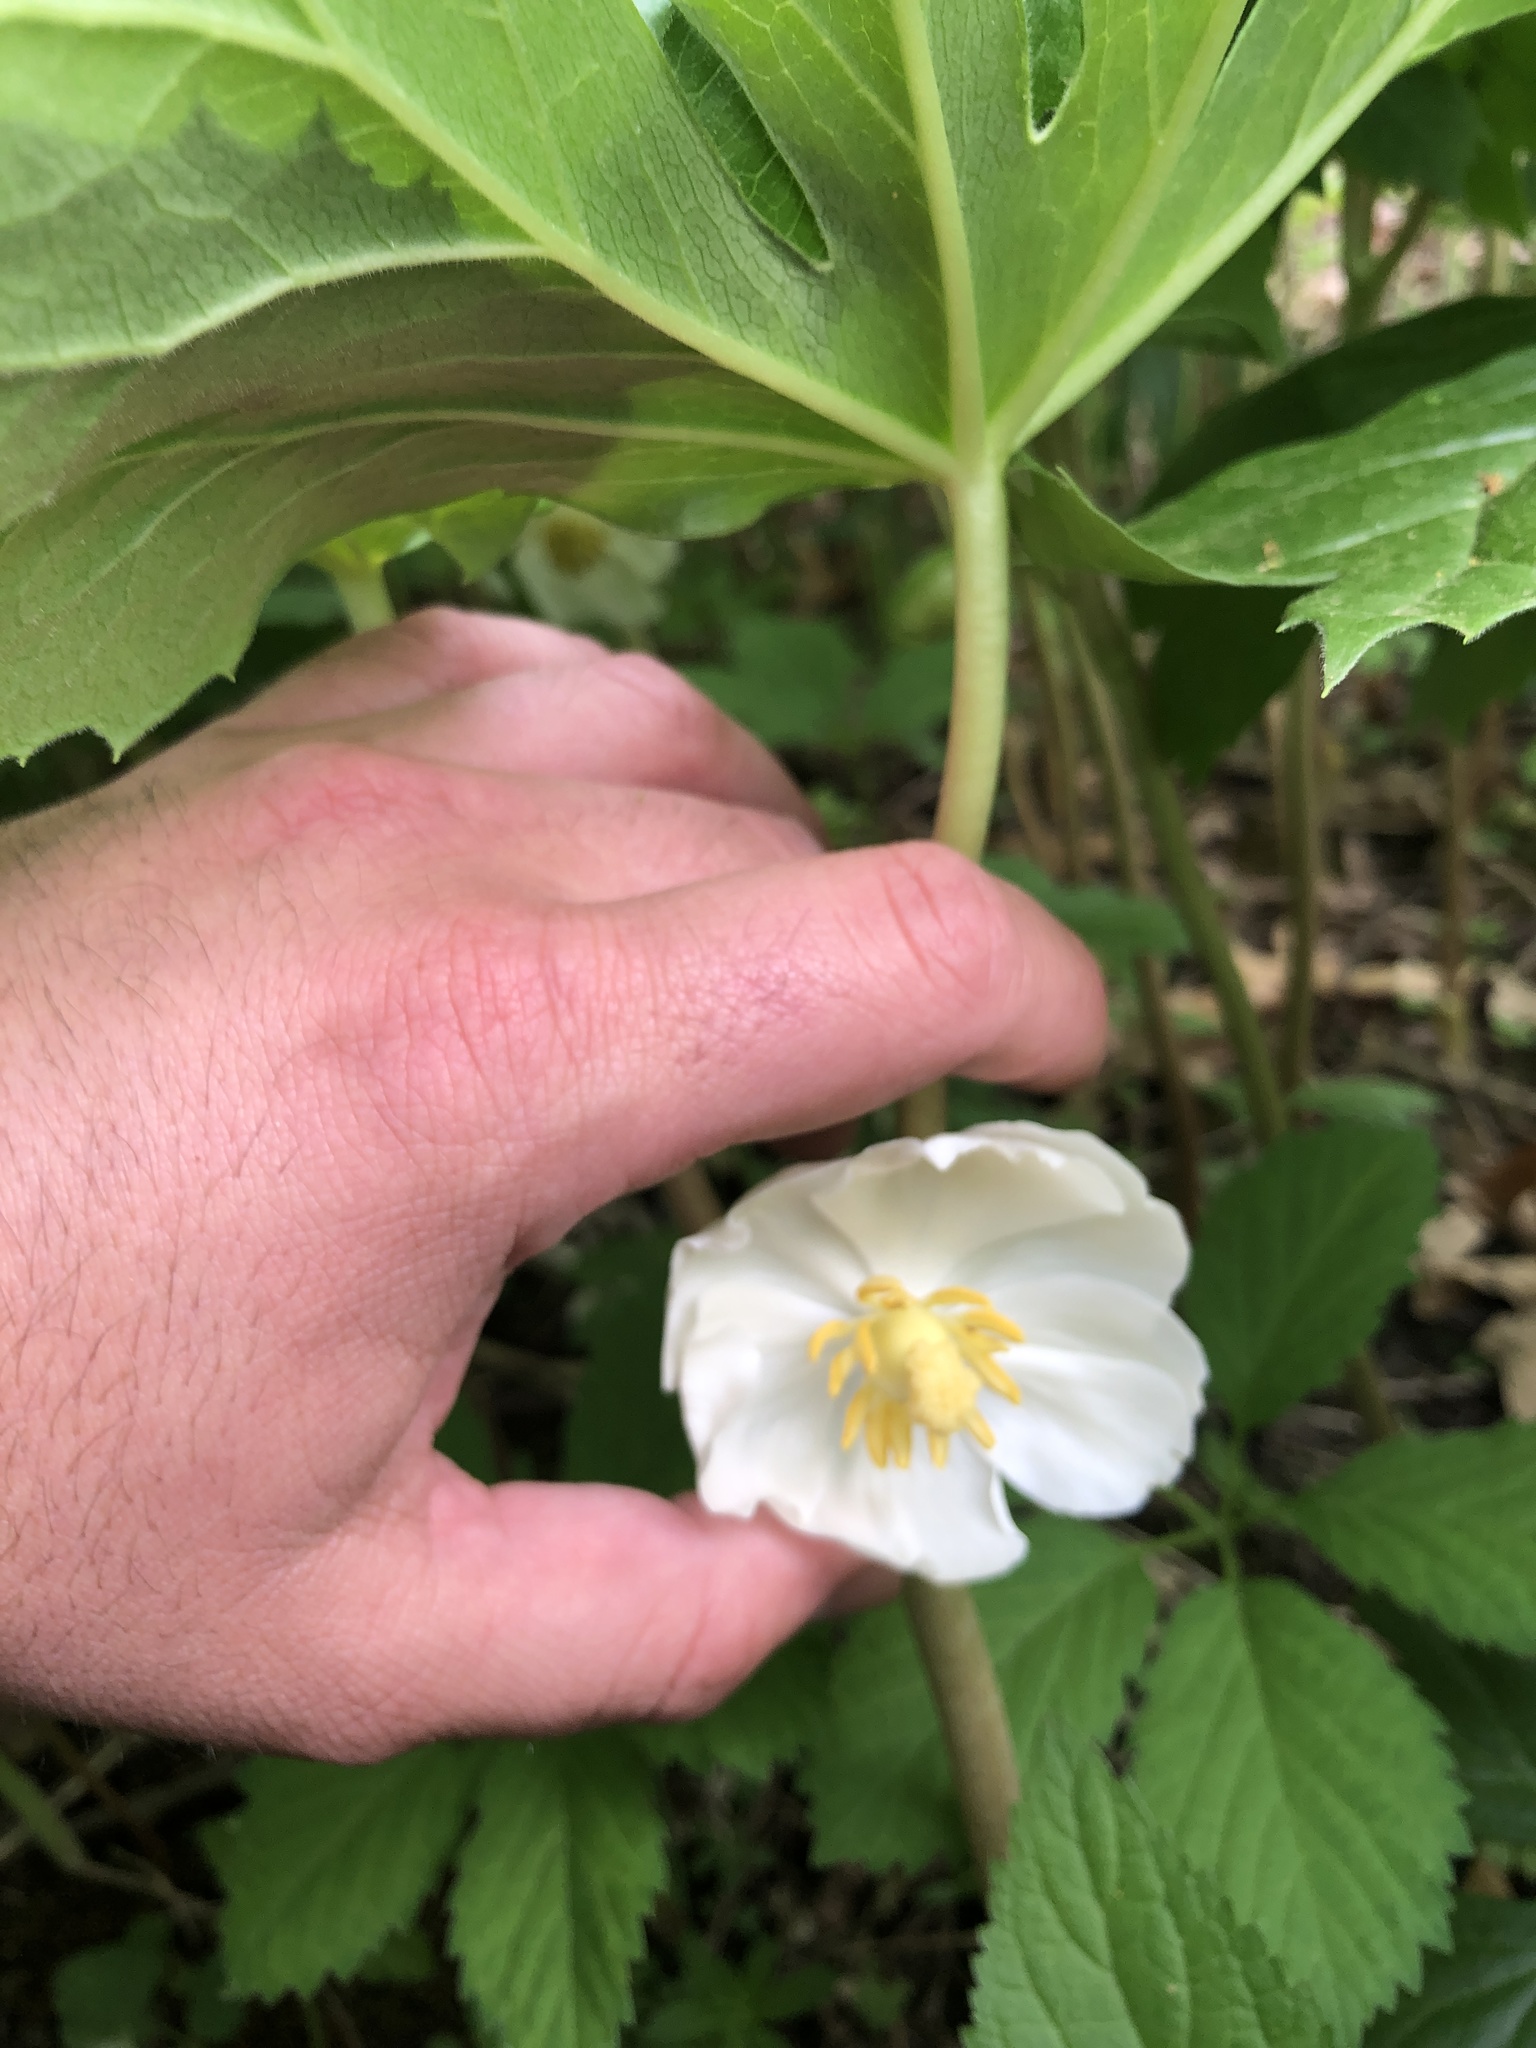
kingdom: Plantae
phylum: Tracheophyta
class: Magnoliopsida
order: Ranunculales
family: Berberidaceae
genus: Podophyllum
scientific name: Podophyllum peltatum
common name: Wild mandrake
